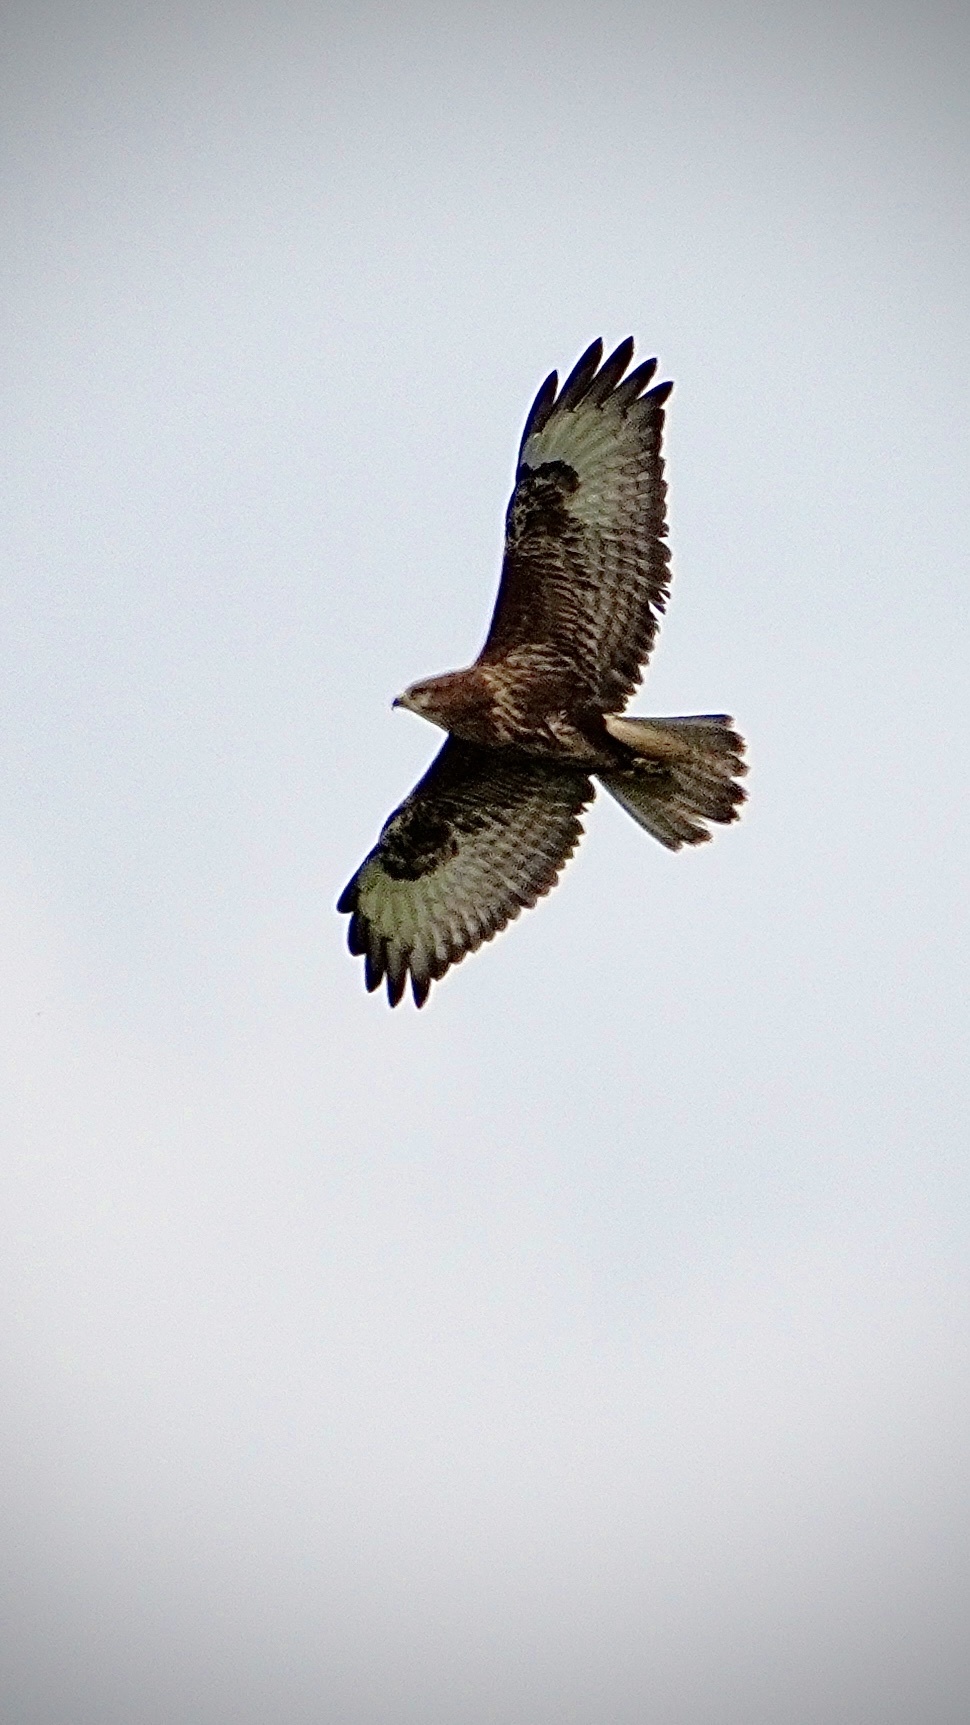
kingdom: Animalia
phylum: Chordata
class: Aves
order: Accipitriformes
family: Accipitridae
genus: Buteo
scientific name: Buteo buteo
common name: Common buzzard
